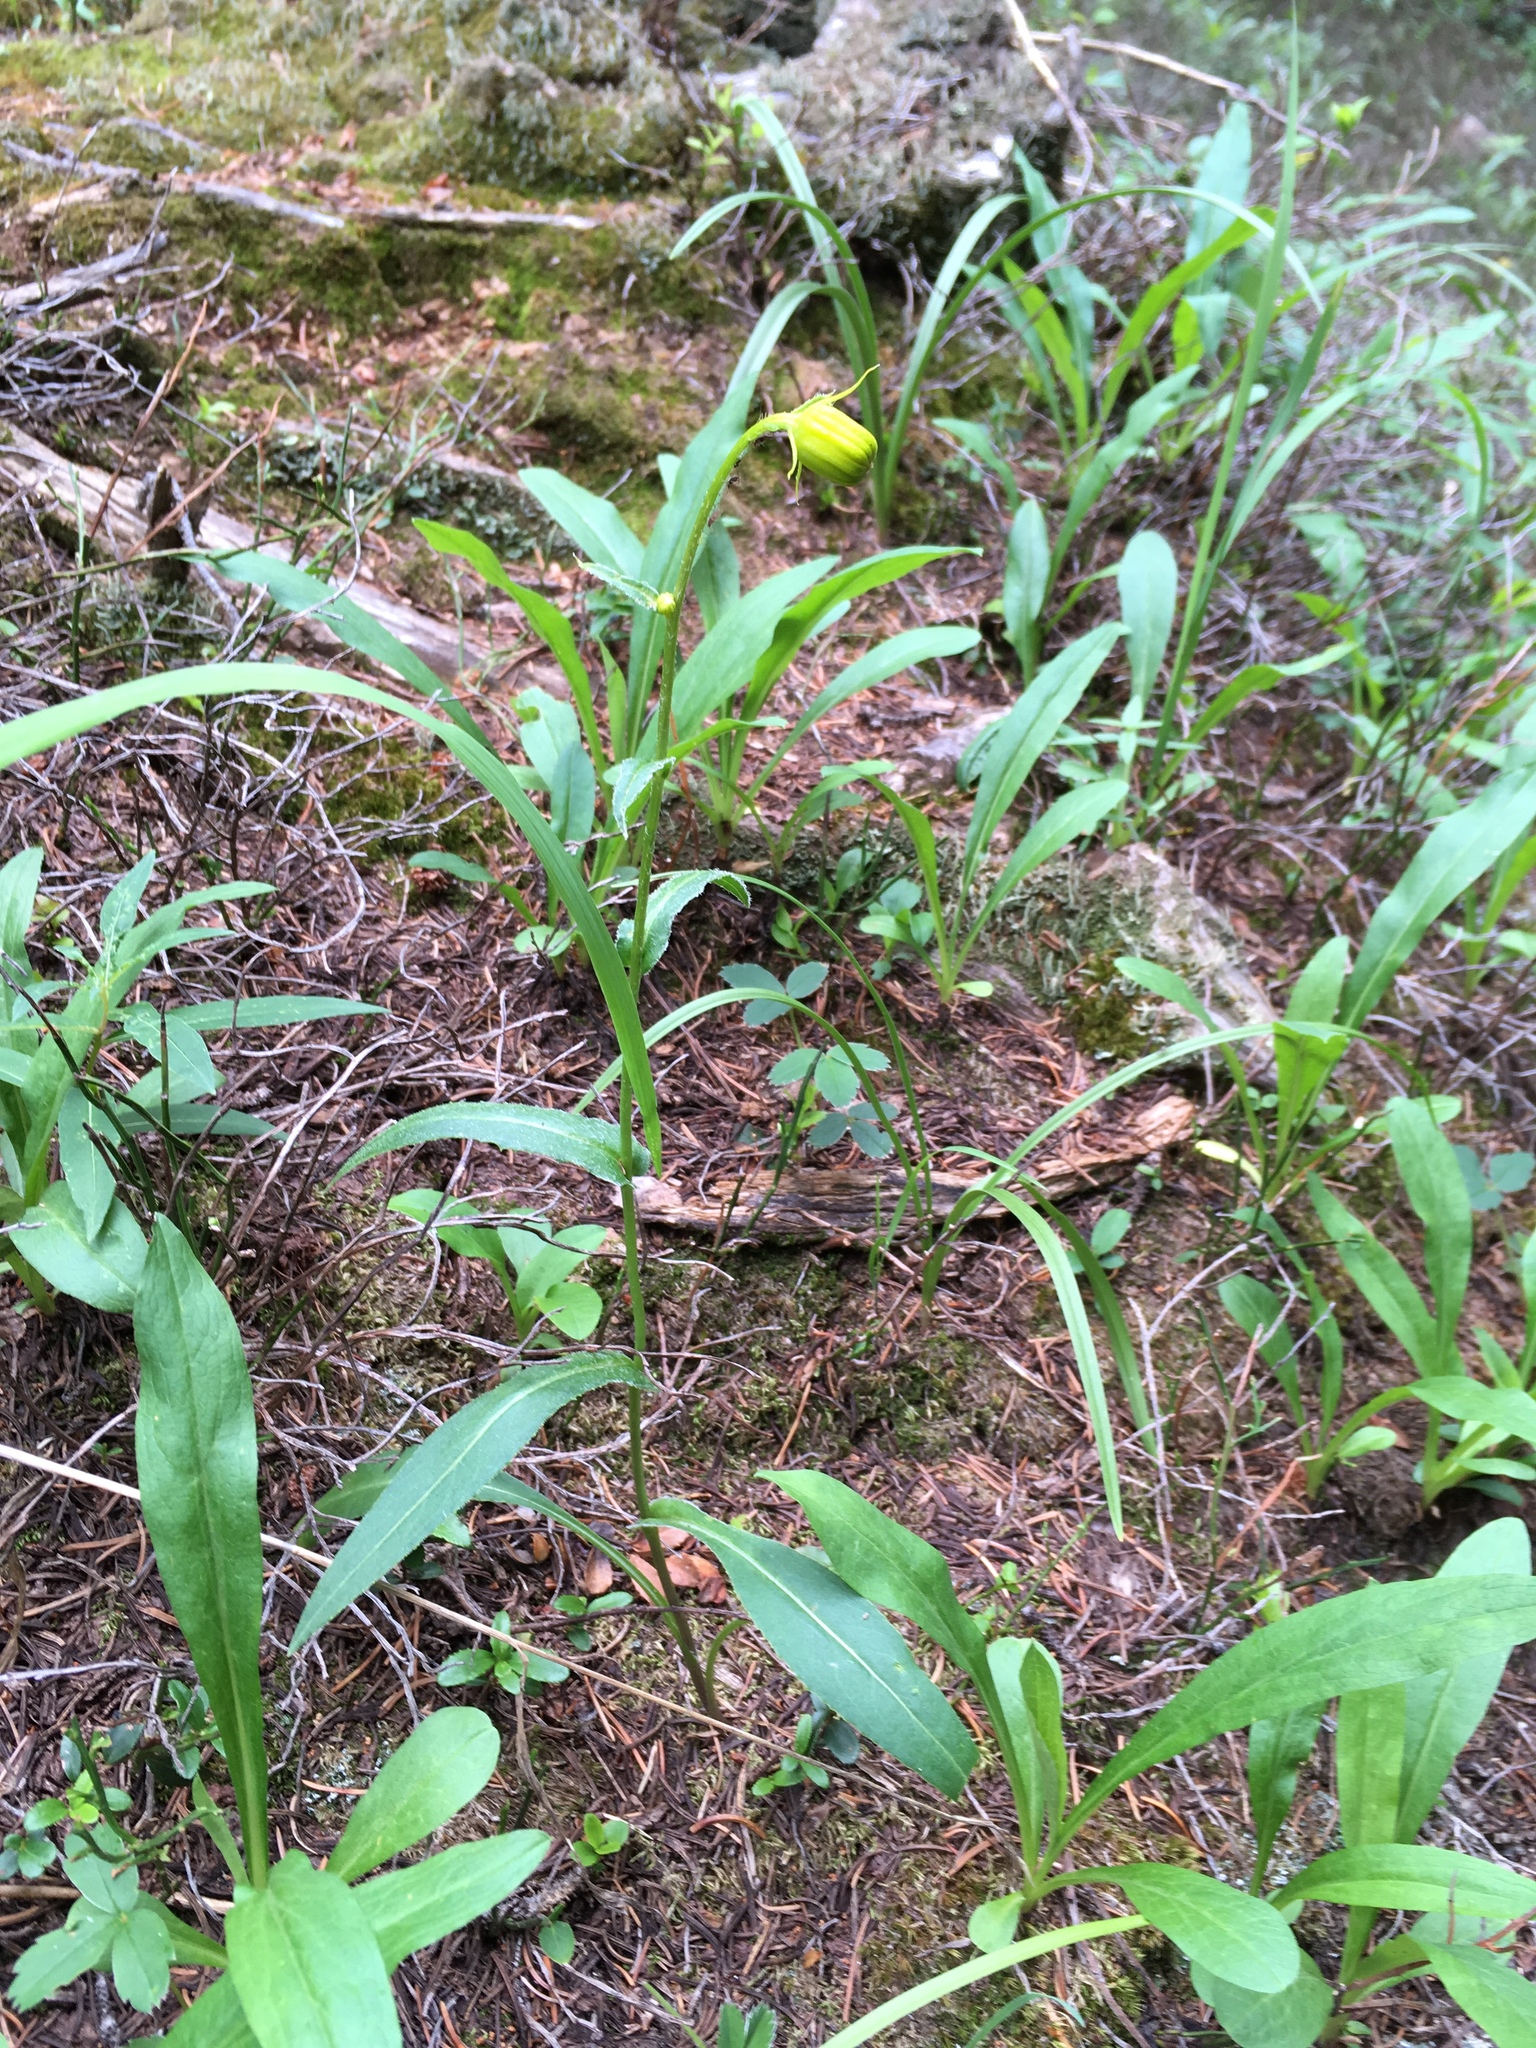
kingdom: Plantae
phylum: Tracheophyta
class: Magnoliopsida
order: Asterales
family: Asteraceae
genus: Senecio
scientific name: Senecio bigelovii
